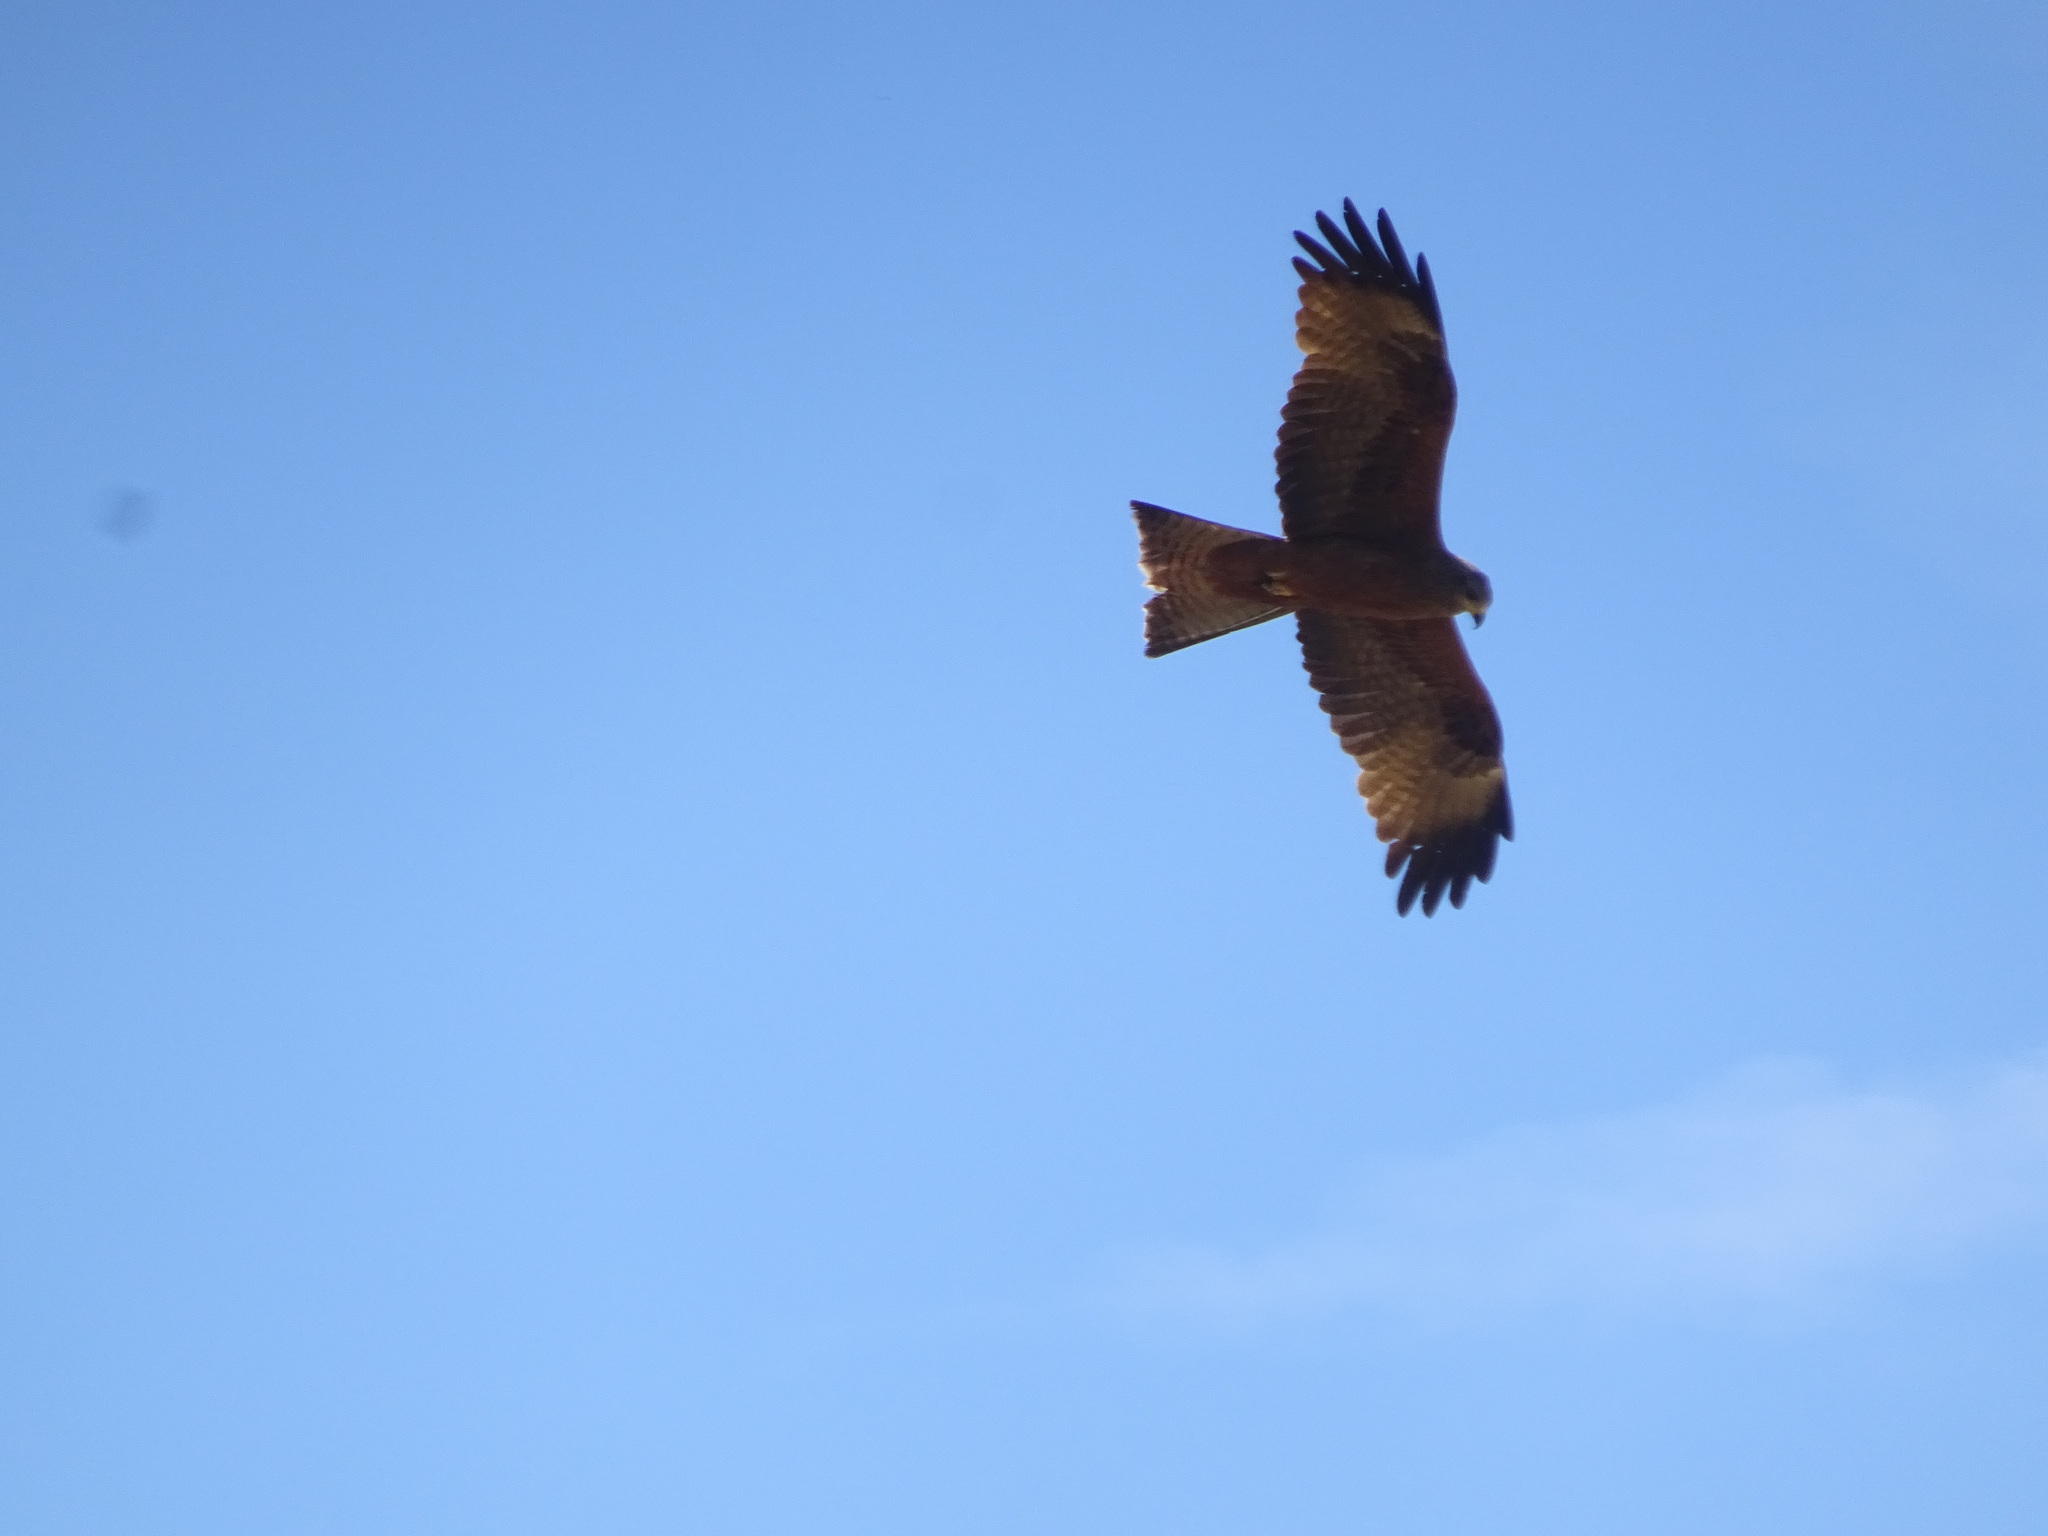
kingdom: Animalia
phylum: Chordata
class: Aves
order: Accipitriformes
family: Accipitridae
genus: Milvus
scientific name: Milvus migrans
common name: Black kite
